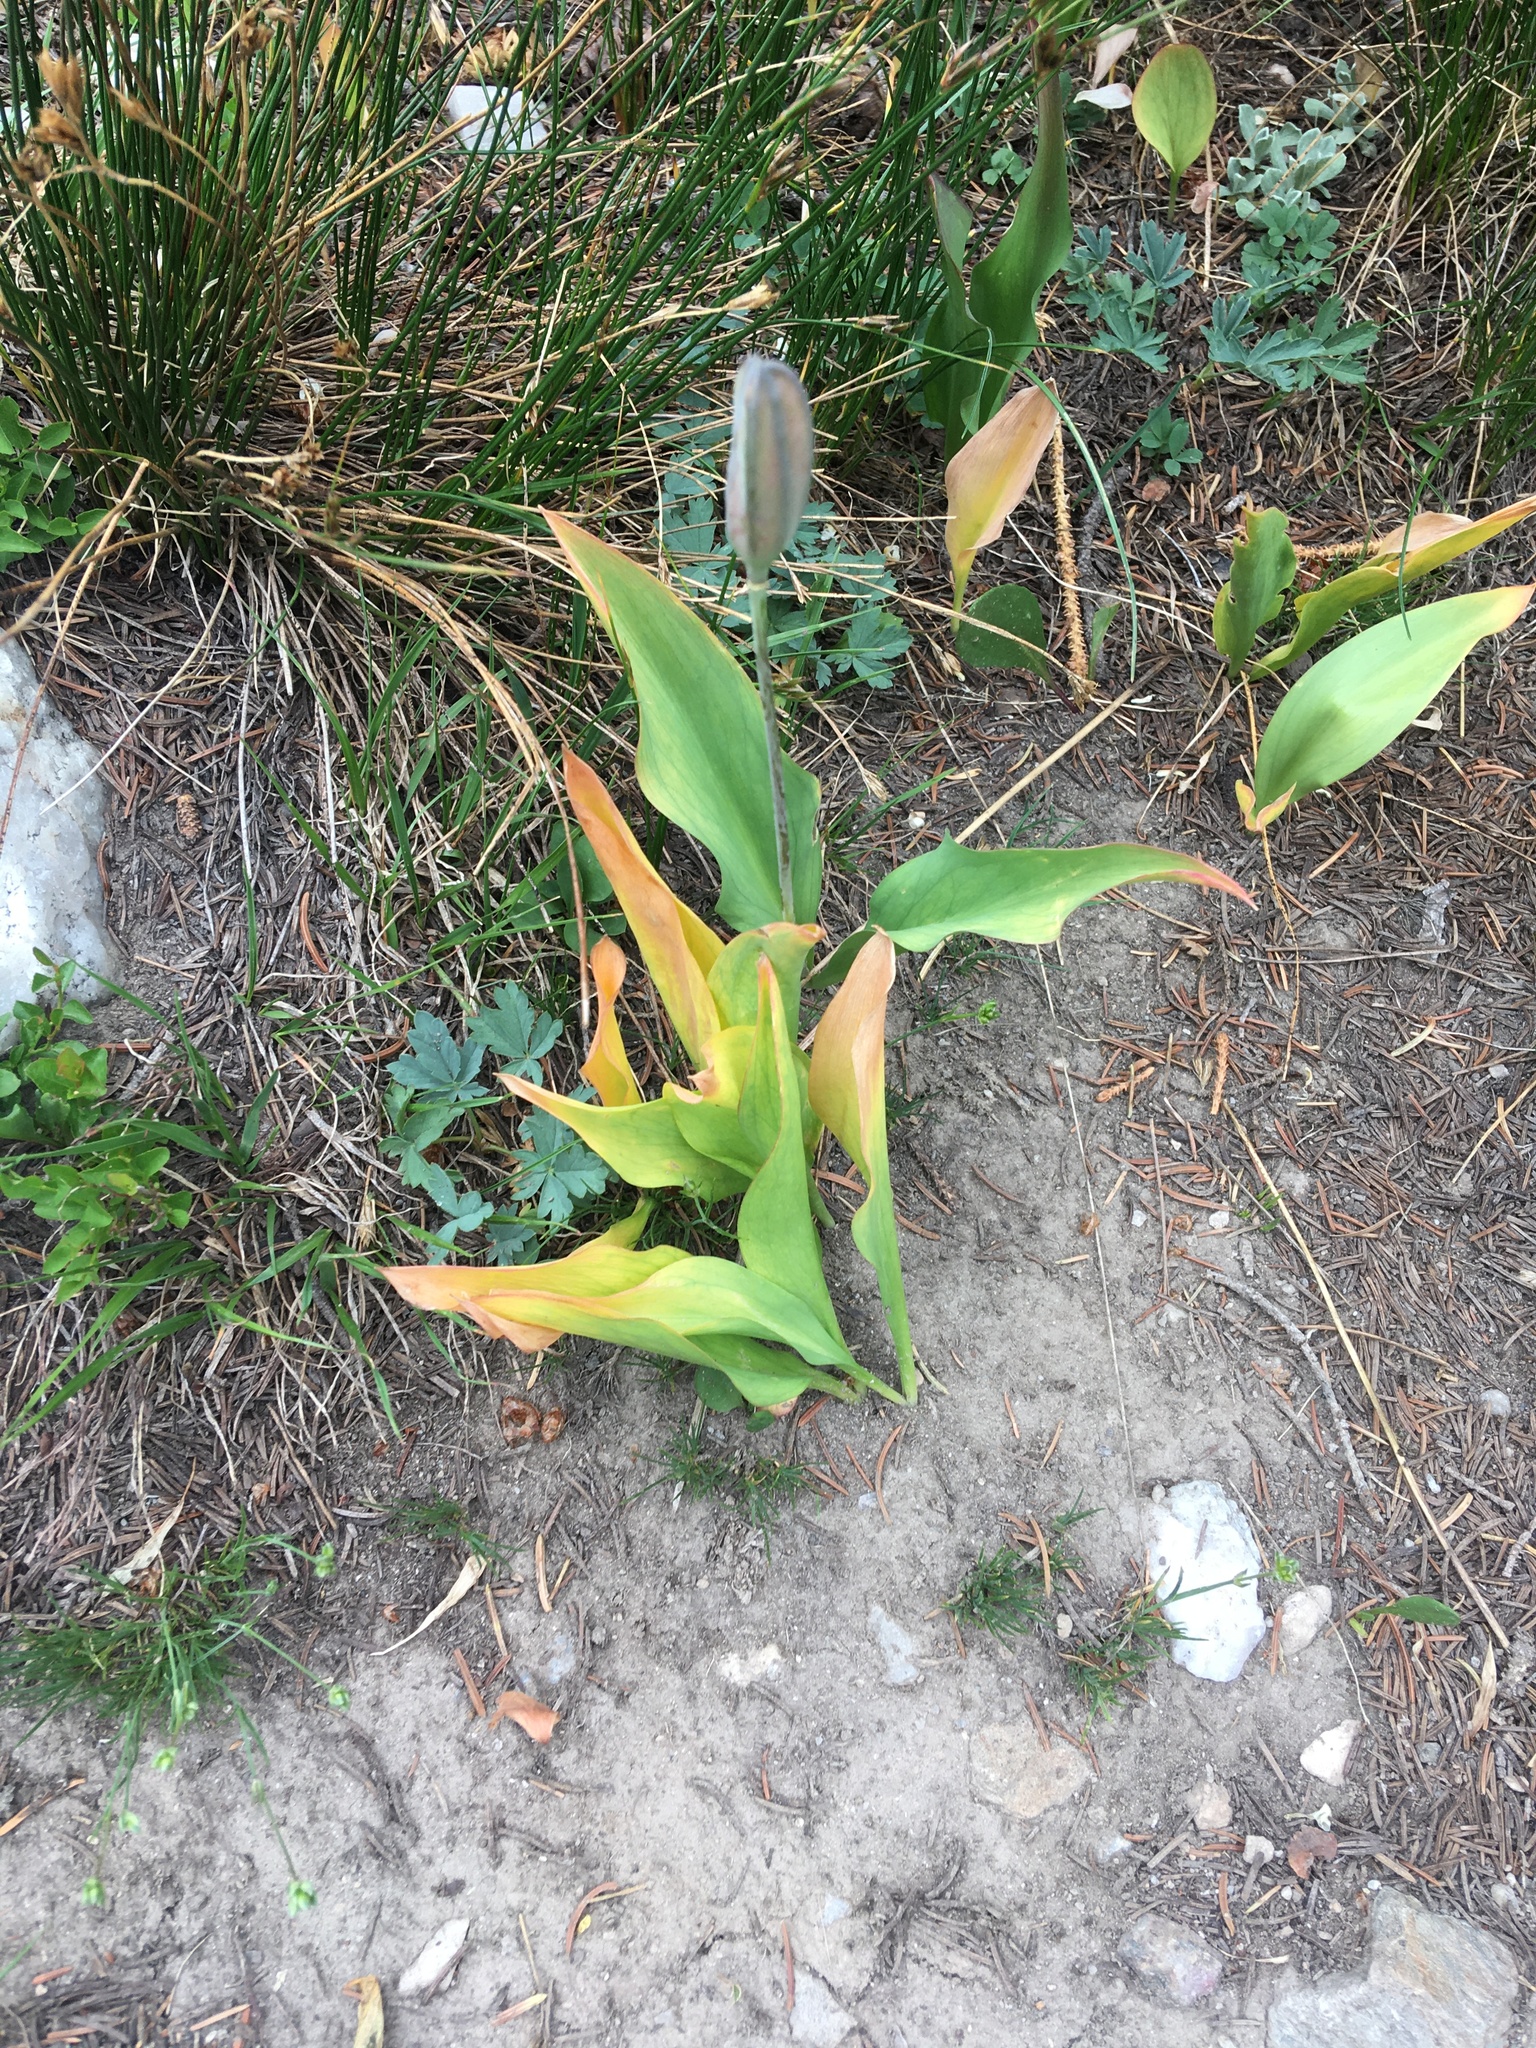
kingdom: Plantae
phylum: Tracheophyta
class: Liliopsida
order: Liliales
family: Liliaceae
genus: Erythronium
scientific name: Erythronium grandiflorum
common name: Avalanche-lily
